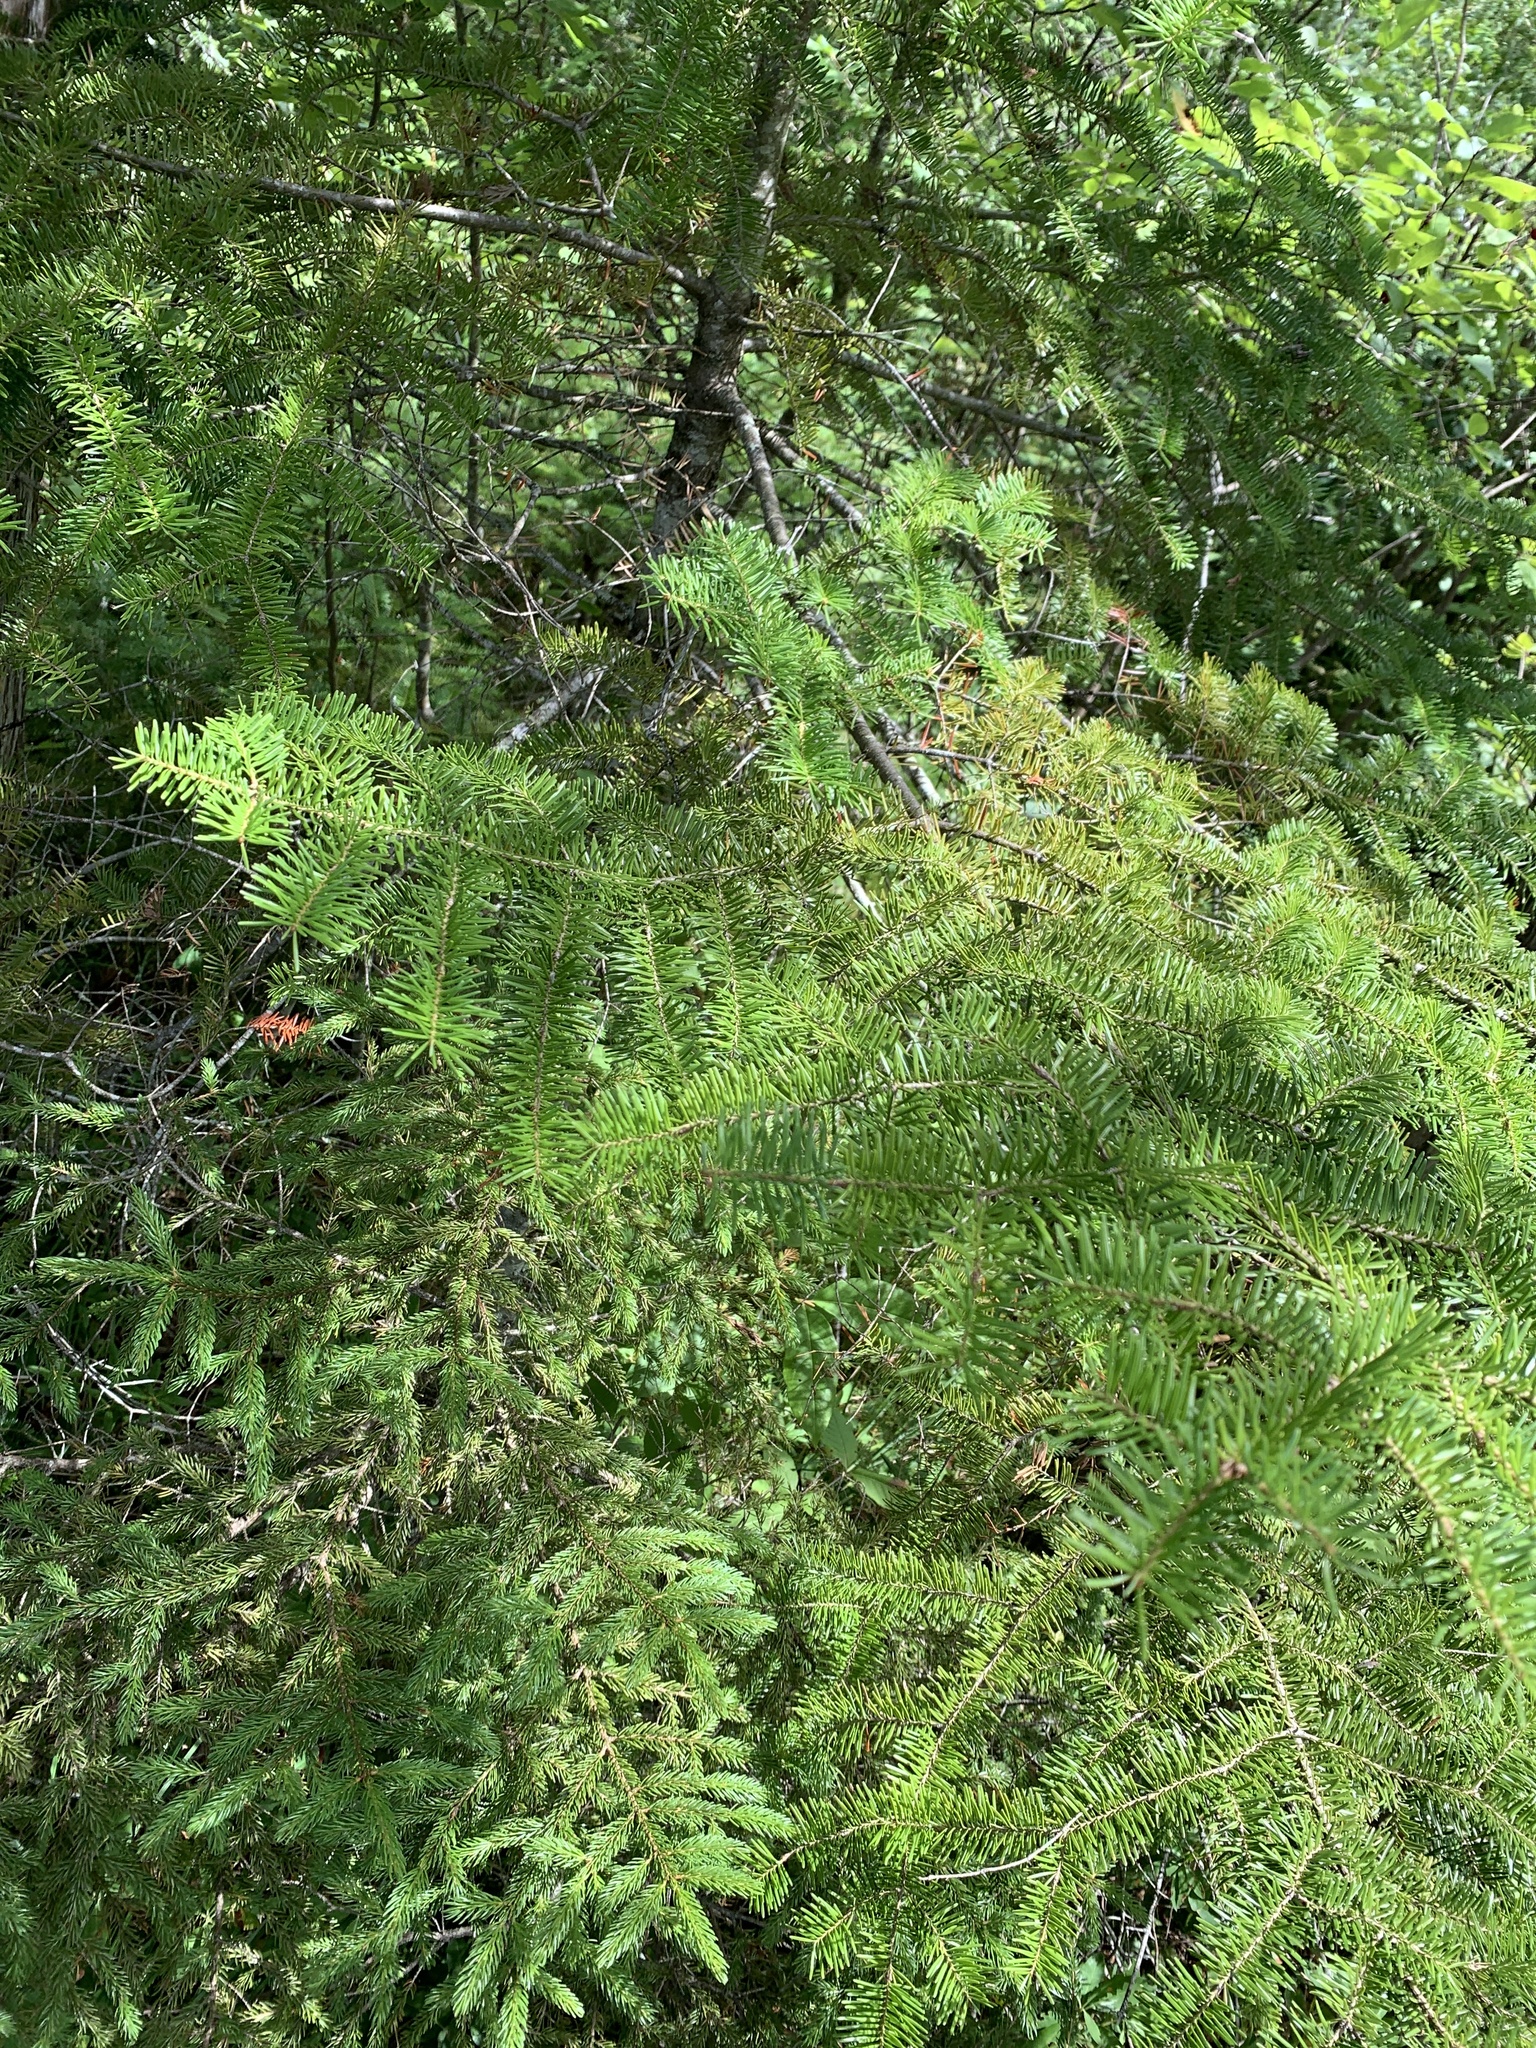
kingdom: Plantae
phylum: Tracheophyta
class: Pinopsida
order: Pinales
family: Pinaceae
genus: Abies
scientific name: Abies balsamea
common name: Balsam fir
